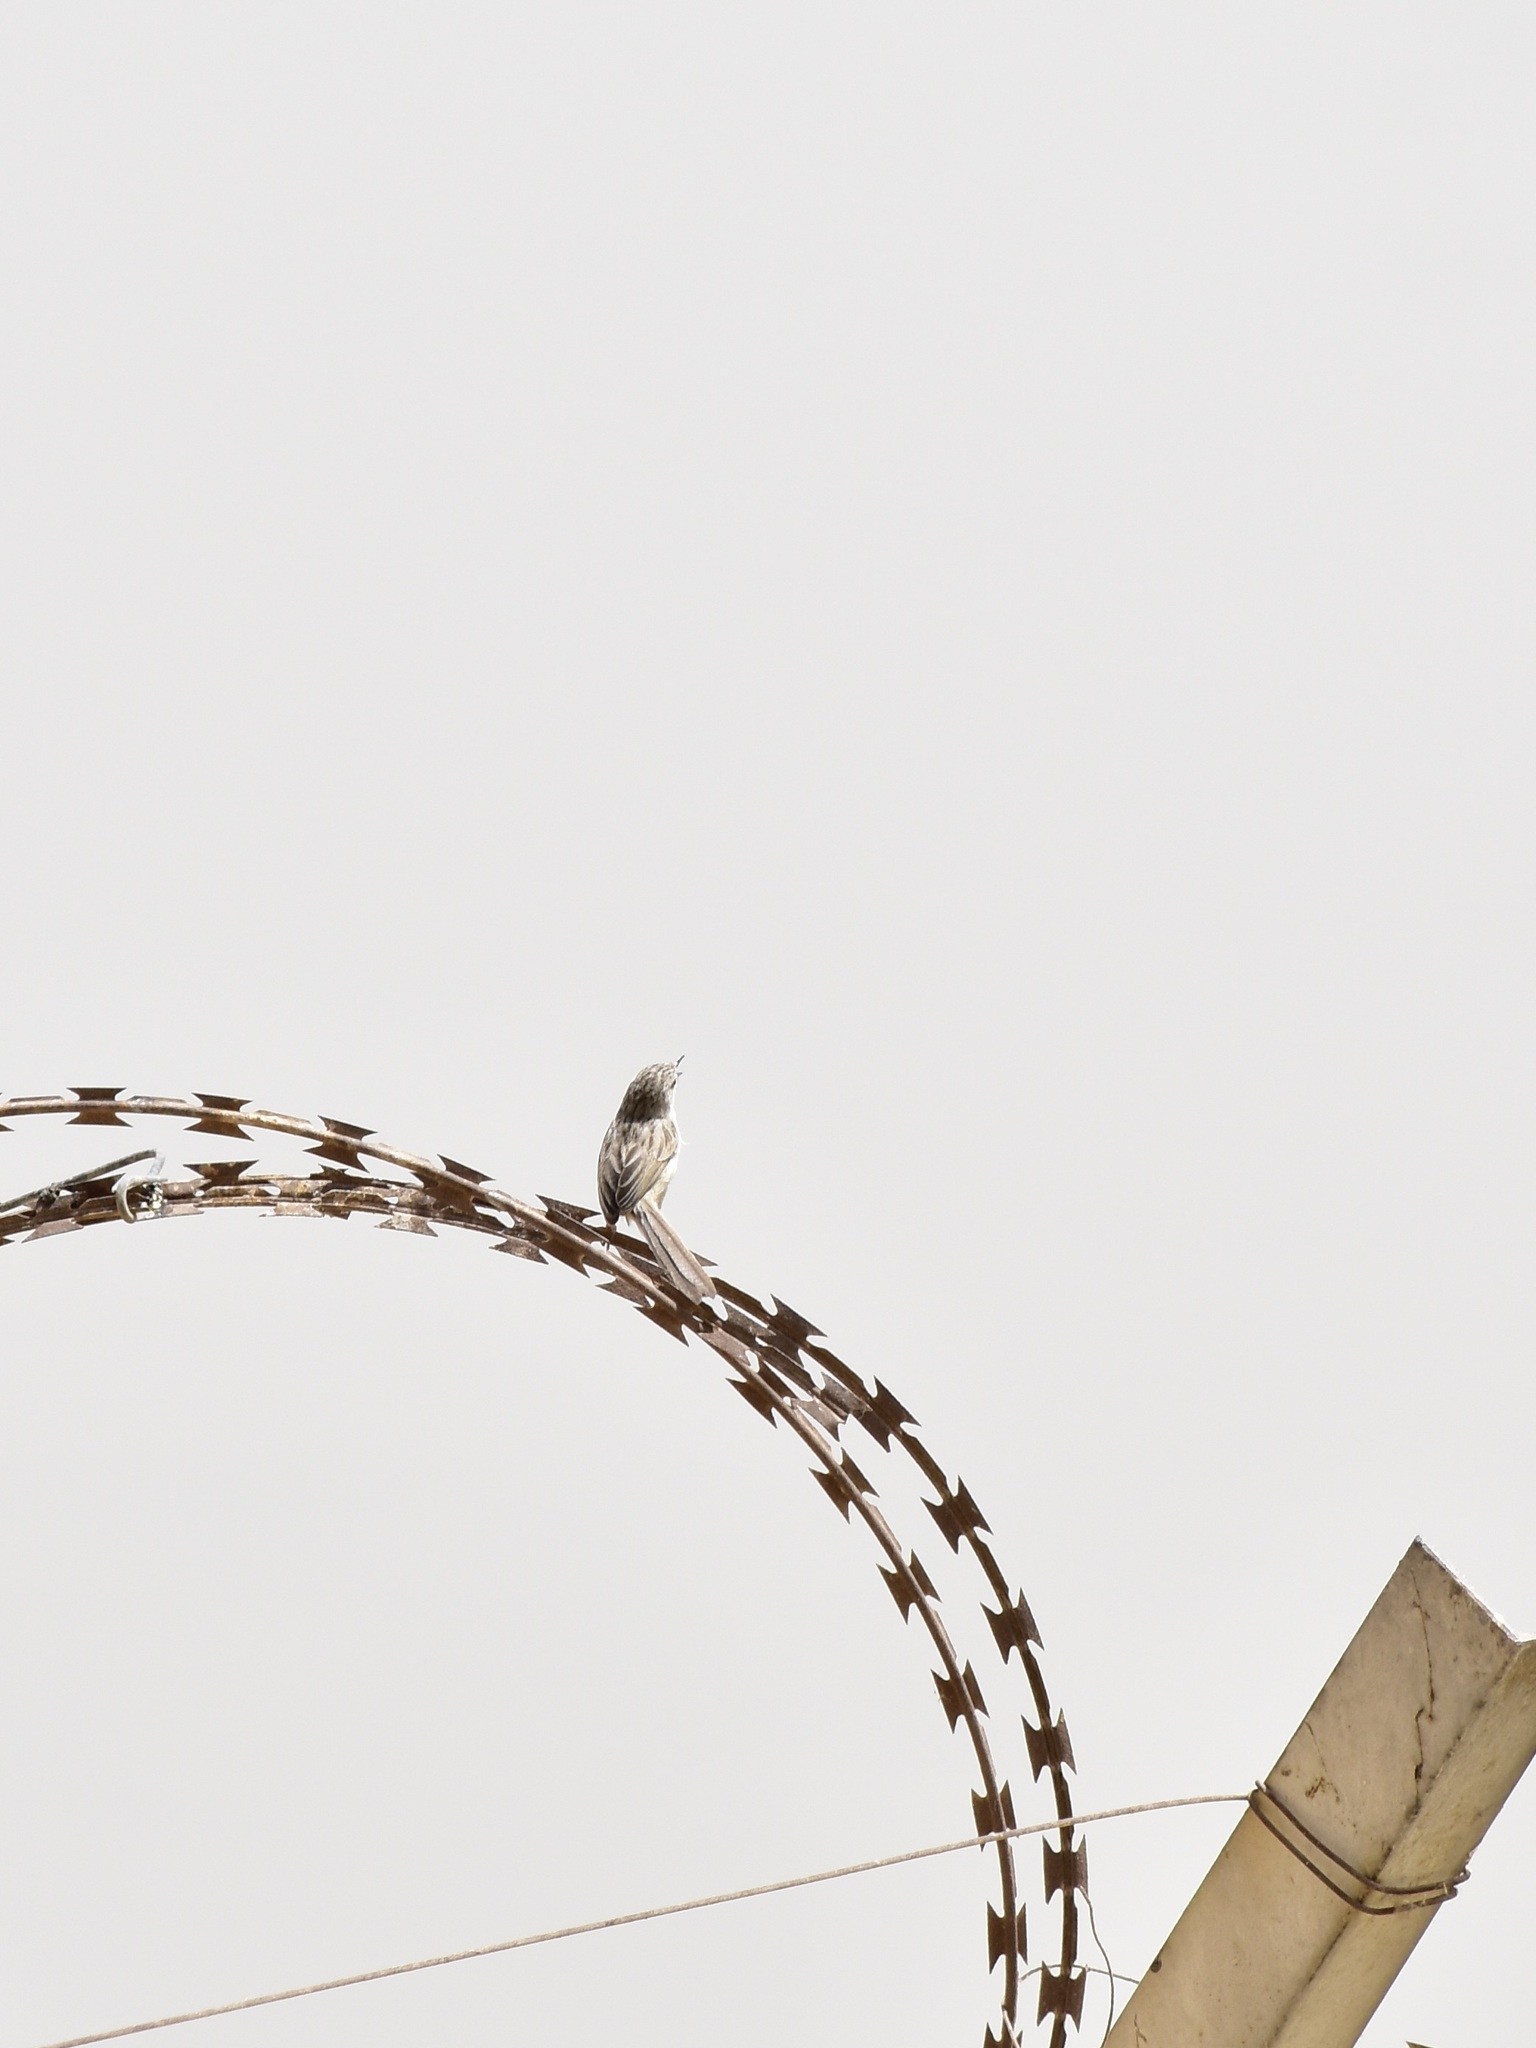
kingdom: Animalia
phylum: Chordata
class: Aves
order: Passeriformes
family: Cisticolidae
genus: Prinia
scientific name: Prinia lepida
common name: Delicate prinia
